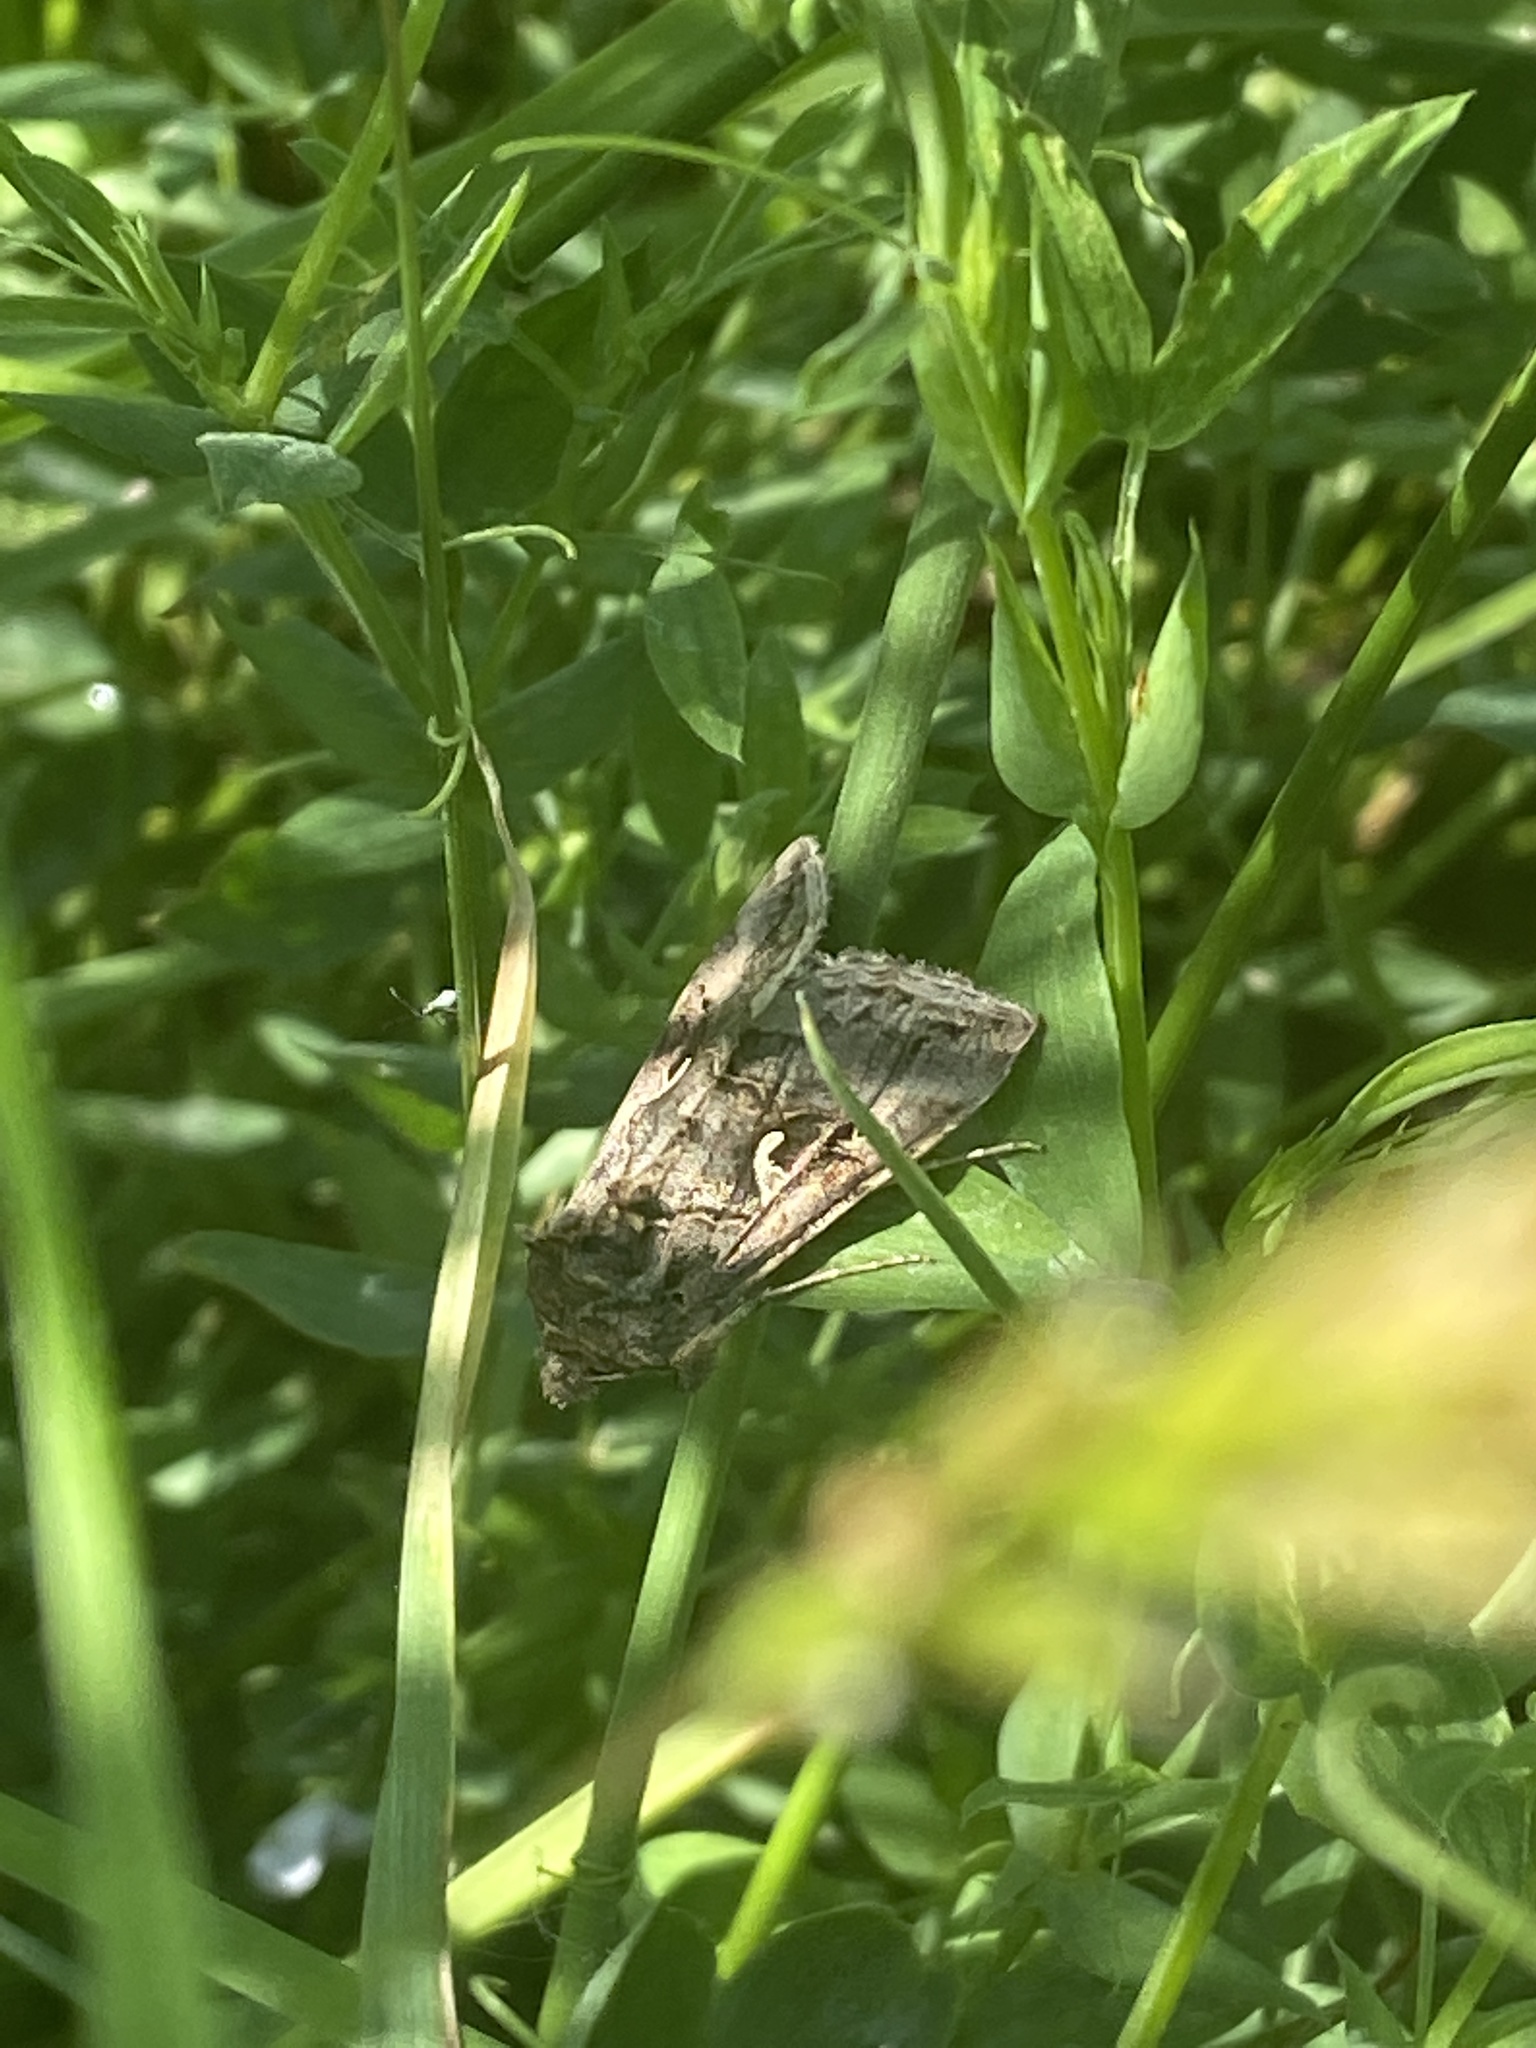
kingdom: Animalia
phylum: Arthropoda
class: Insecta
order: Lepidoptera
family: Noctuidae
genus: Autographa
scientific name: Autographa gamma
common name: Silver y
